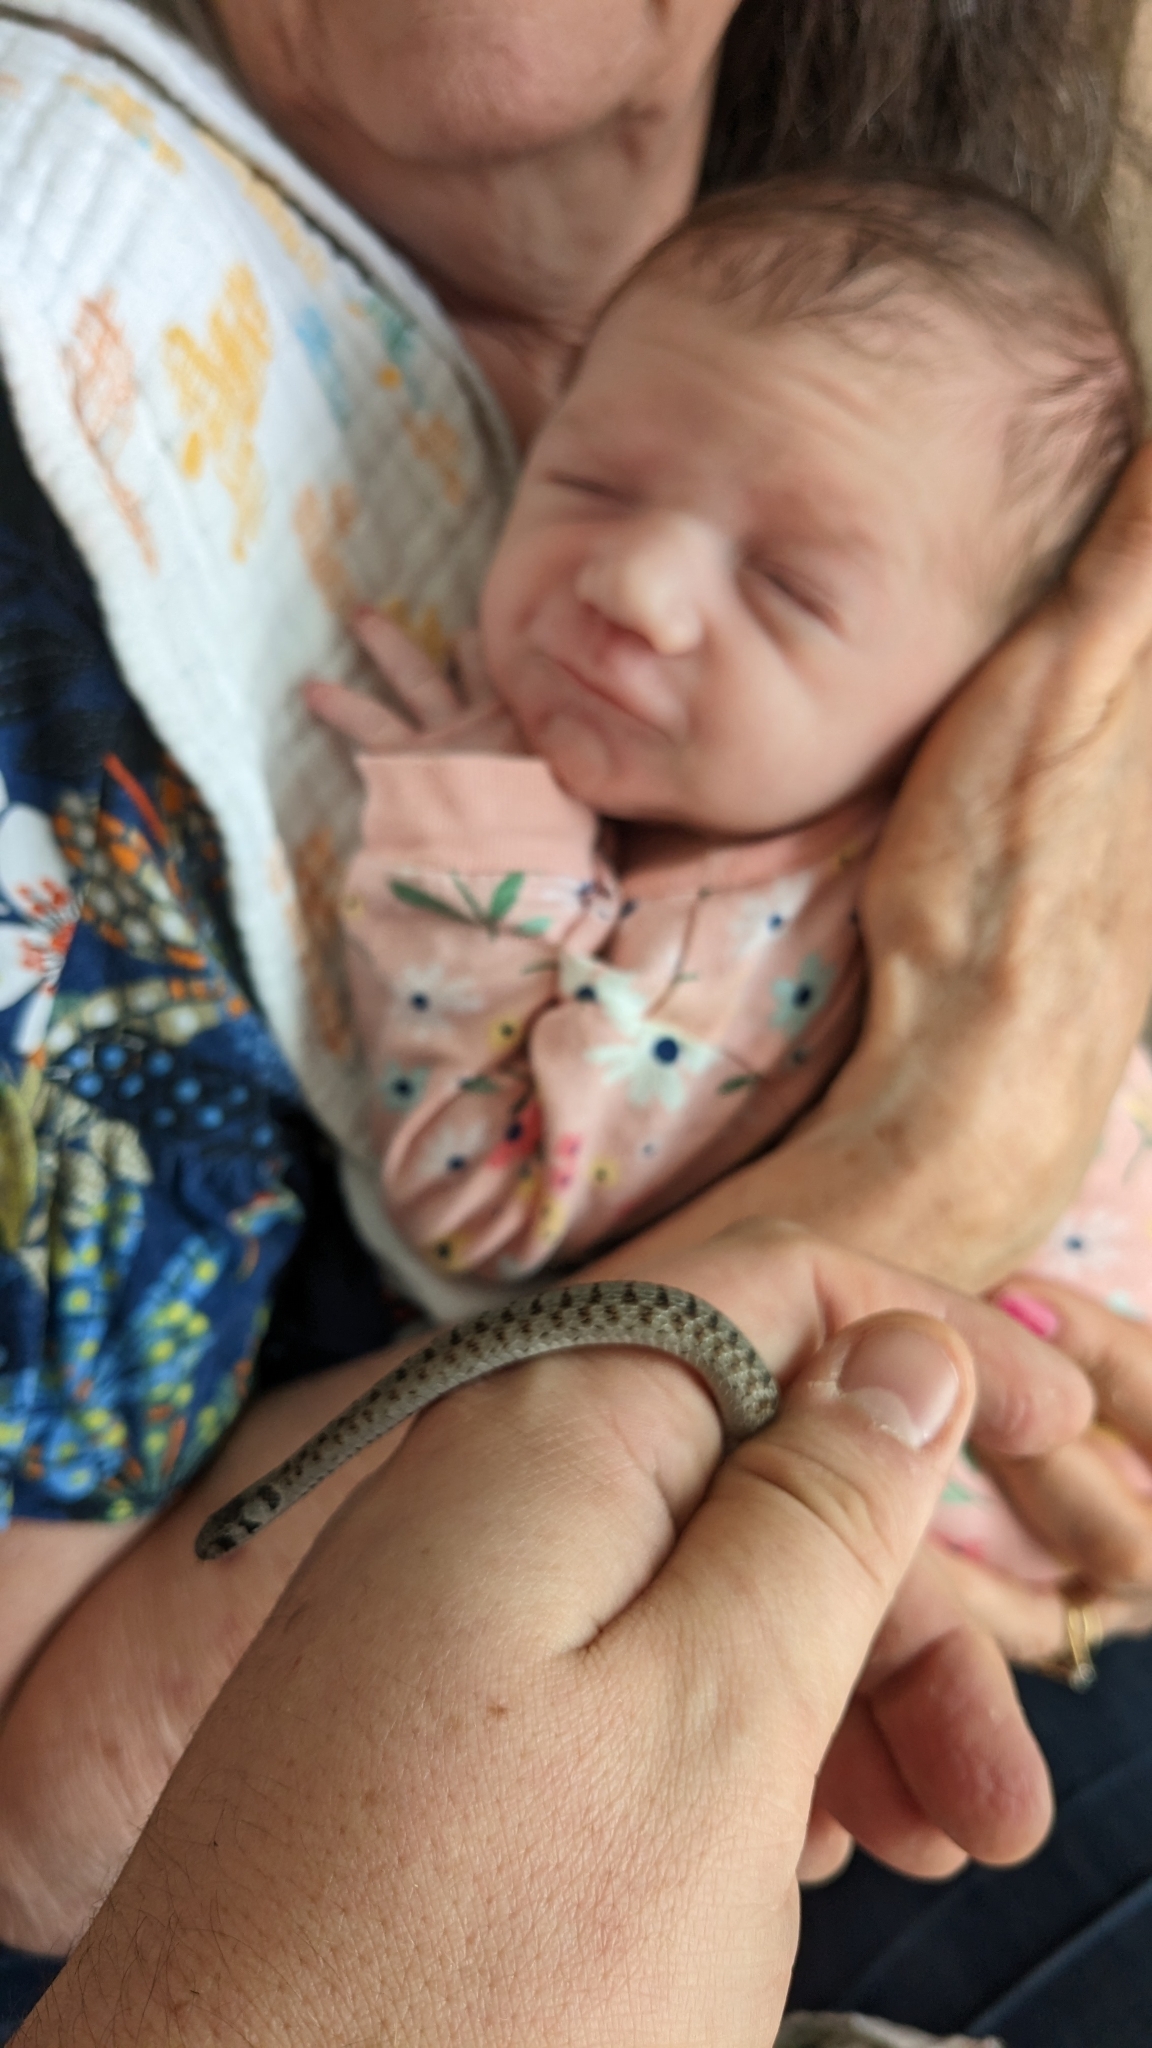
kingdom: Animalia
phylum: Chordata
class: Squamata
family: Colubridae
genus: Storeria
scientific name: Storeria dekayi
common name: (dekay’s) brown snake
